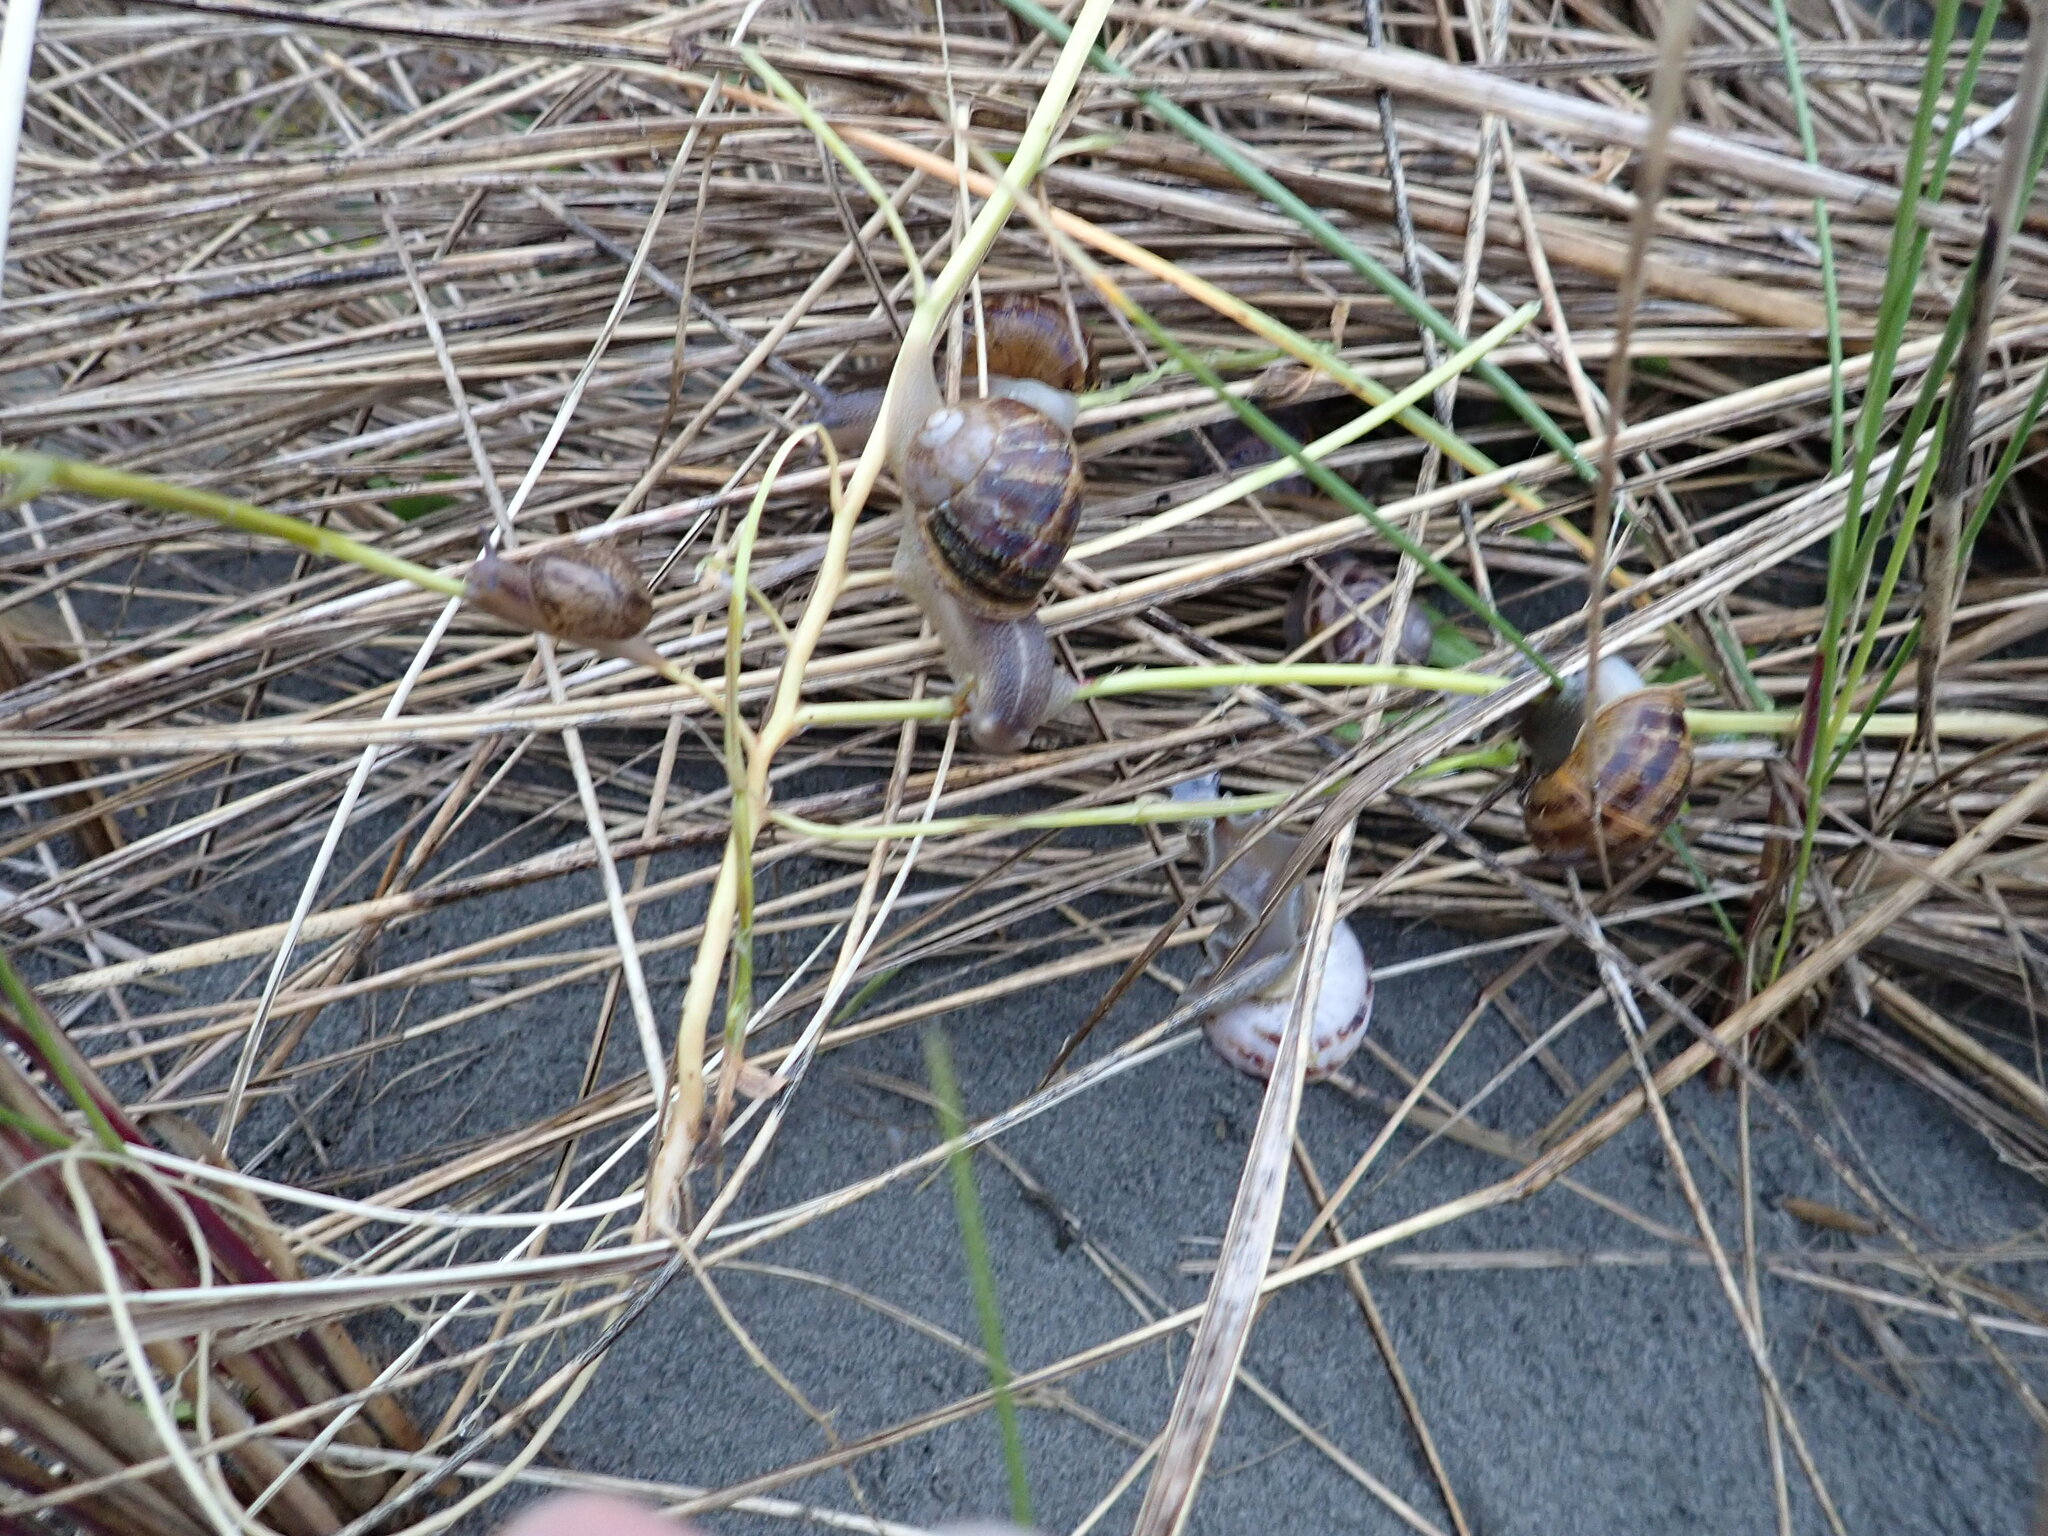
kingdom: Animalia
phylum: Mollusca
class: Gastropoda
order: Stylommatophora
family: Helicidae
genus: Cornu
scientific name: Cornu aspersum
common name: Brown garden snail
